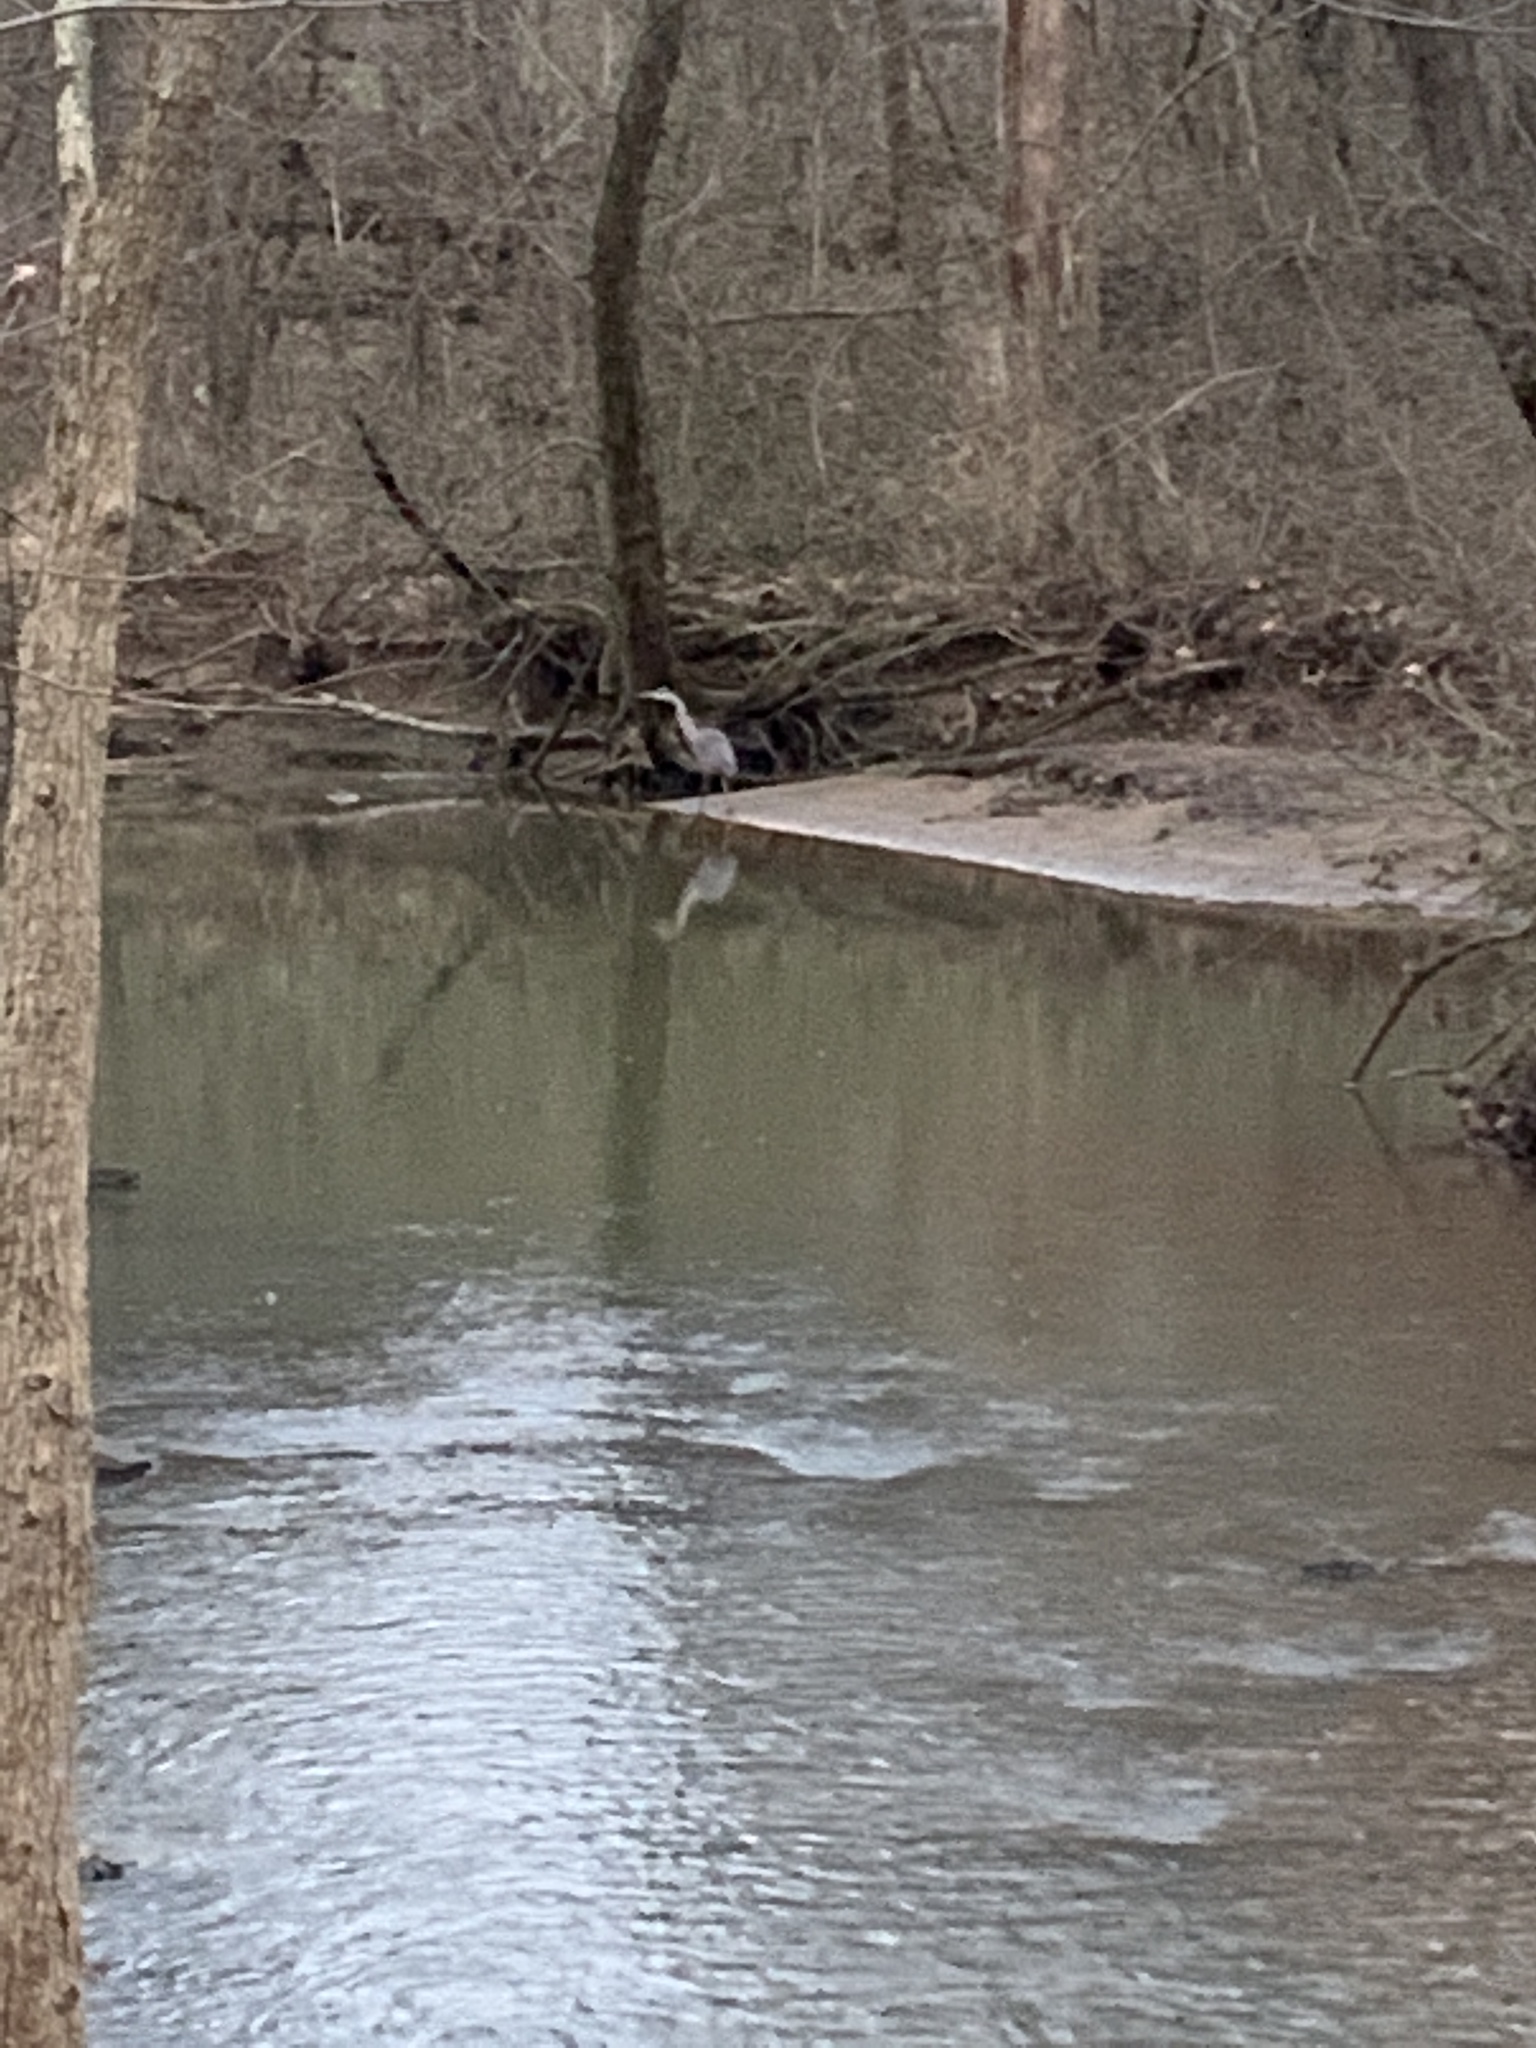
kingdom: Animalia
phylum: Chordata
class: Aves
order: Pelecaniformes
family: Ardeidae
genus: Ardea
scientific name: Ardea herodias
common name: Great blue heron
